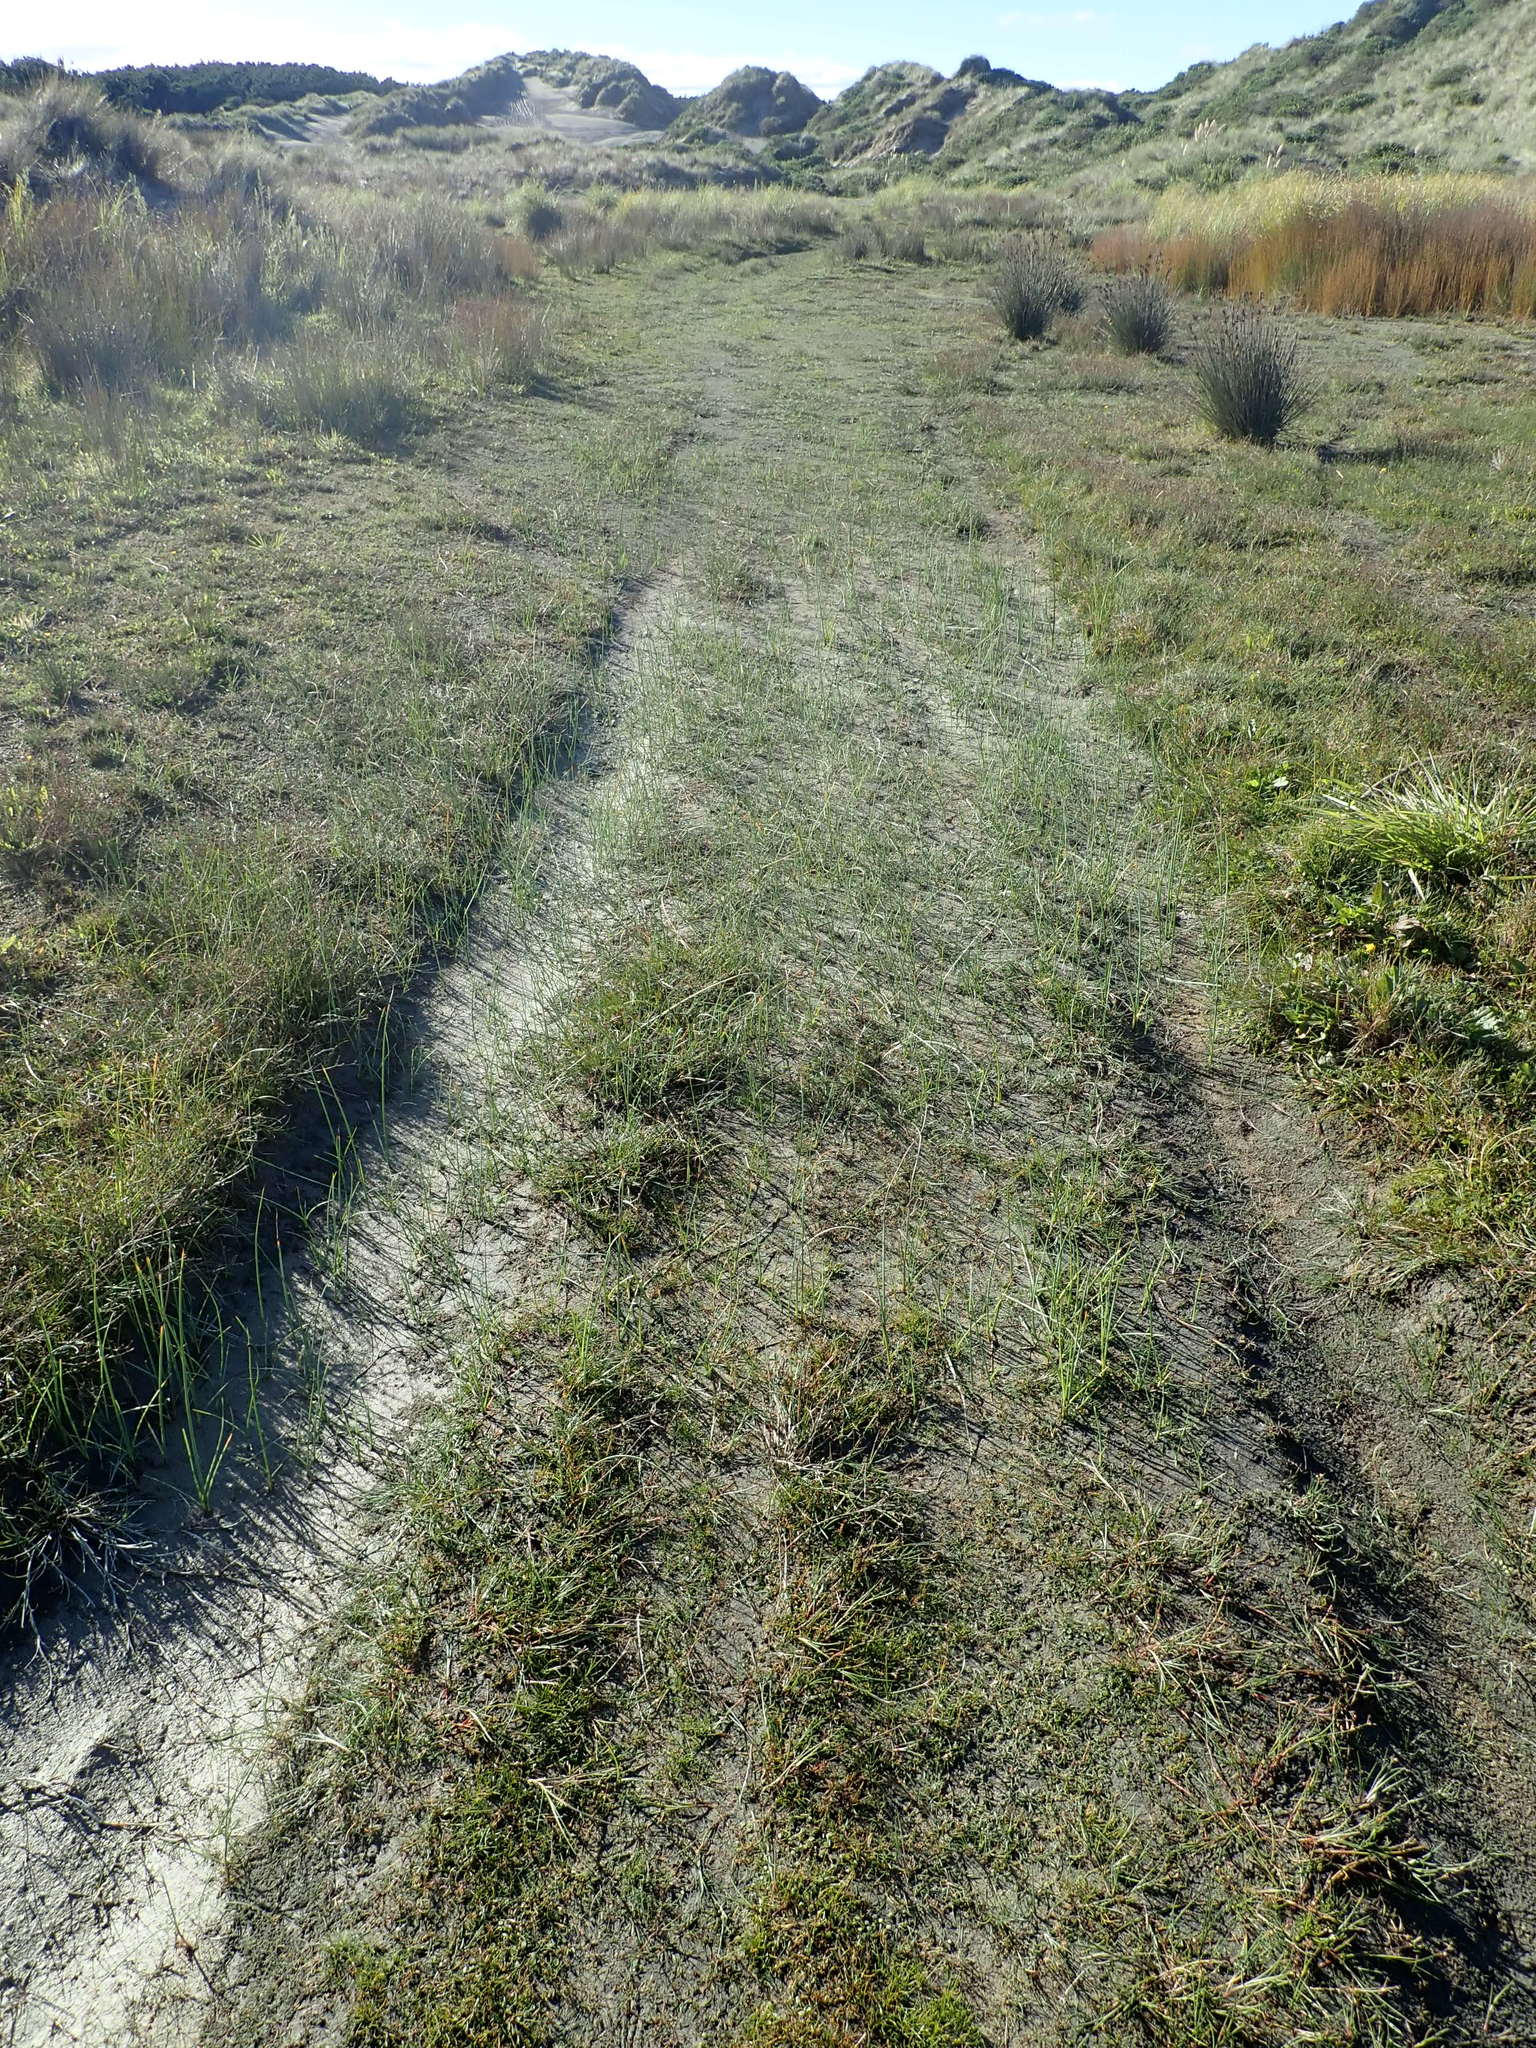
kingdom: Plantae
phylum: Tracheophyta
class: Liliopsida
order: Poales
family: Cyperaceae
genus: Schoenoplectus
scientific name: Schoenoplectus pungens
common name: Sharp club-rush
